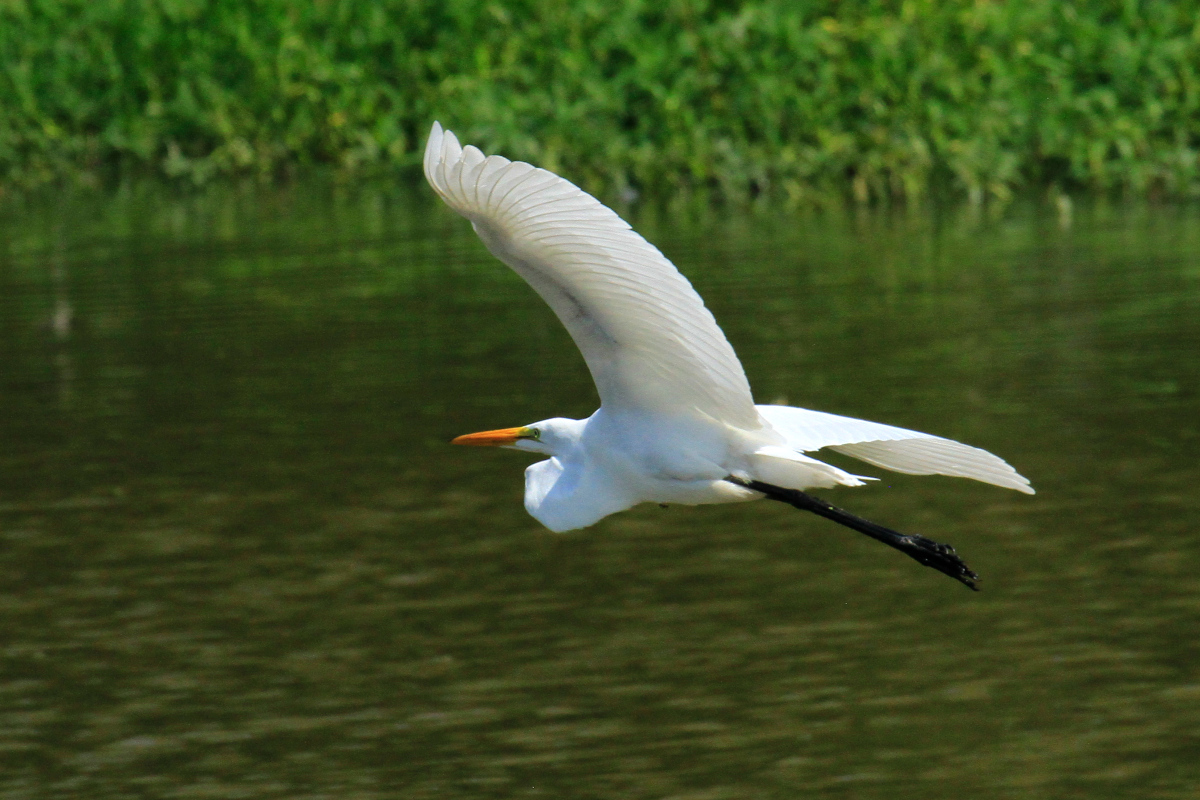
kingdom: Animalia
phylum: Chordata
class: Aves
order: Pelecaniformes
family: Ardeidae
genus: Ardea
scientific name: Ardea alba
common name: Great egret
